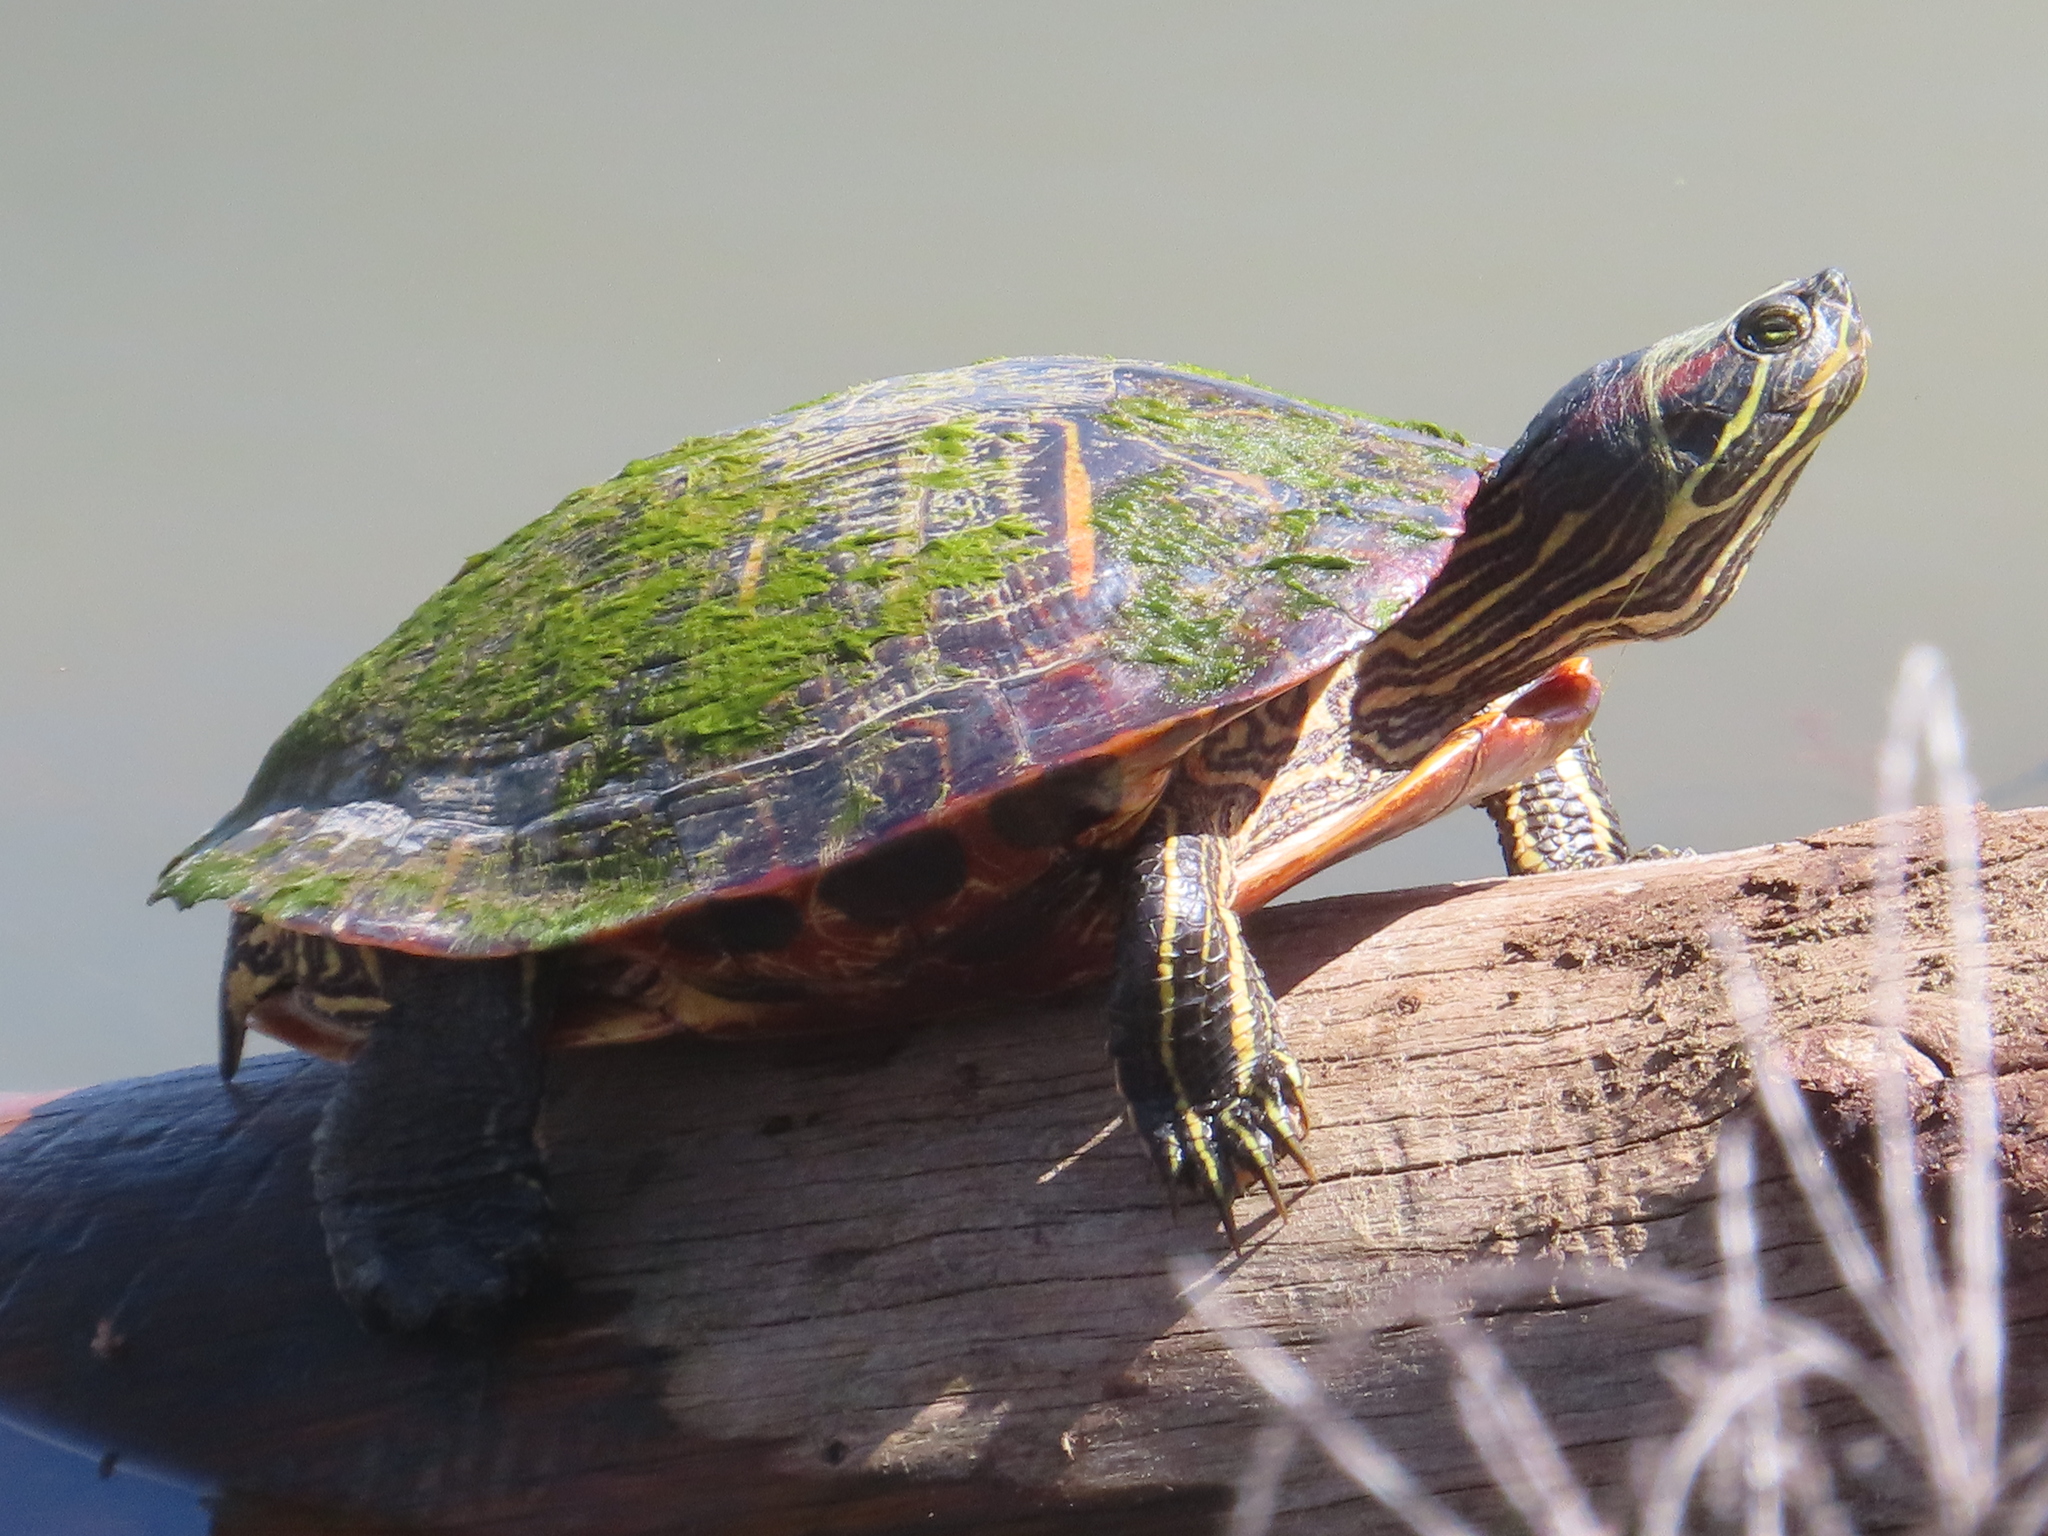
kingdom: Animalia
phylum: Chordata
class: Testudines
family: Emydidae
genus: Trachemys
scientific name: Trachemys scripta
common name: Slider
